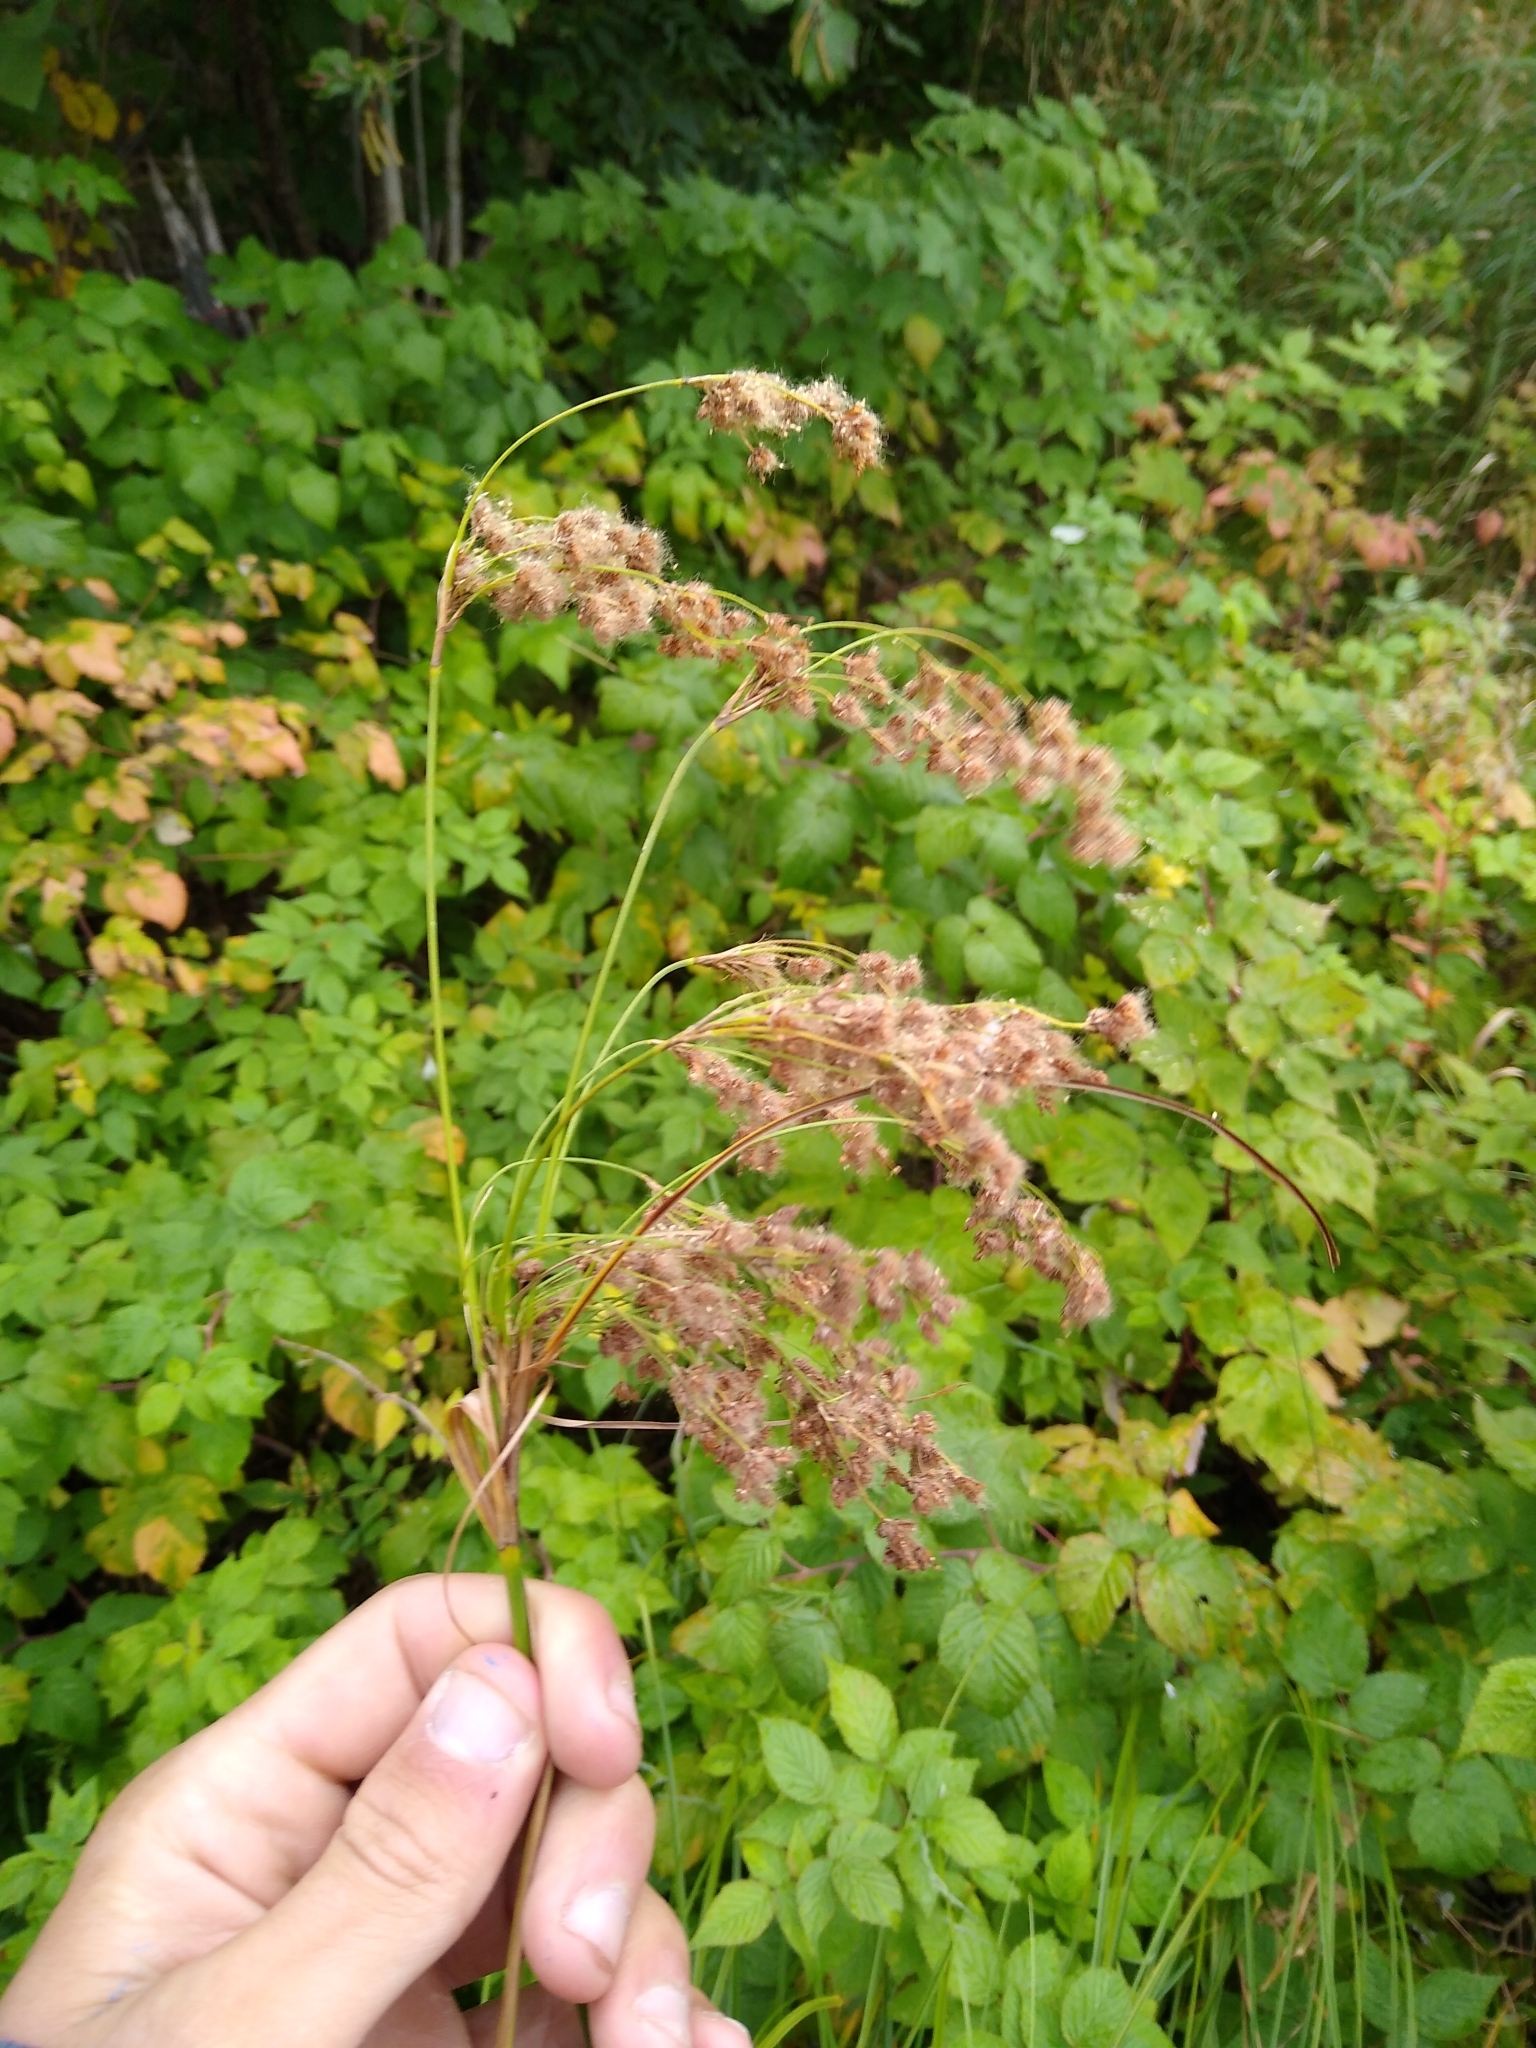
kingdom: Plantae
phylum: Tracheophyta
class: Liliopsida
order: Poales
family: Cyperaceae
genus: Scirpus
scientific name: Scirpus cyperinus
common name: Black-sheathed bulrush
